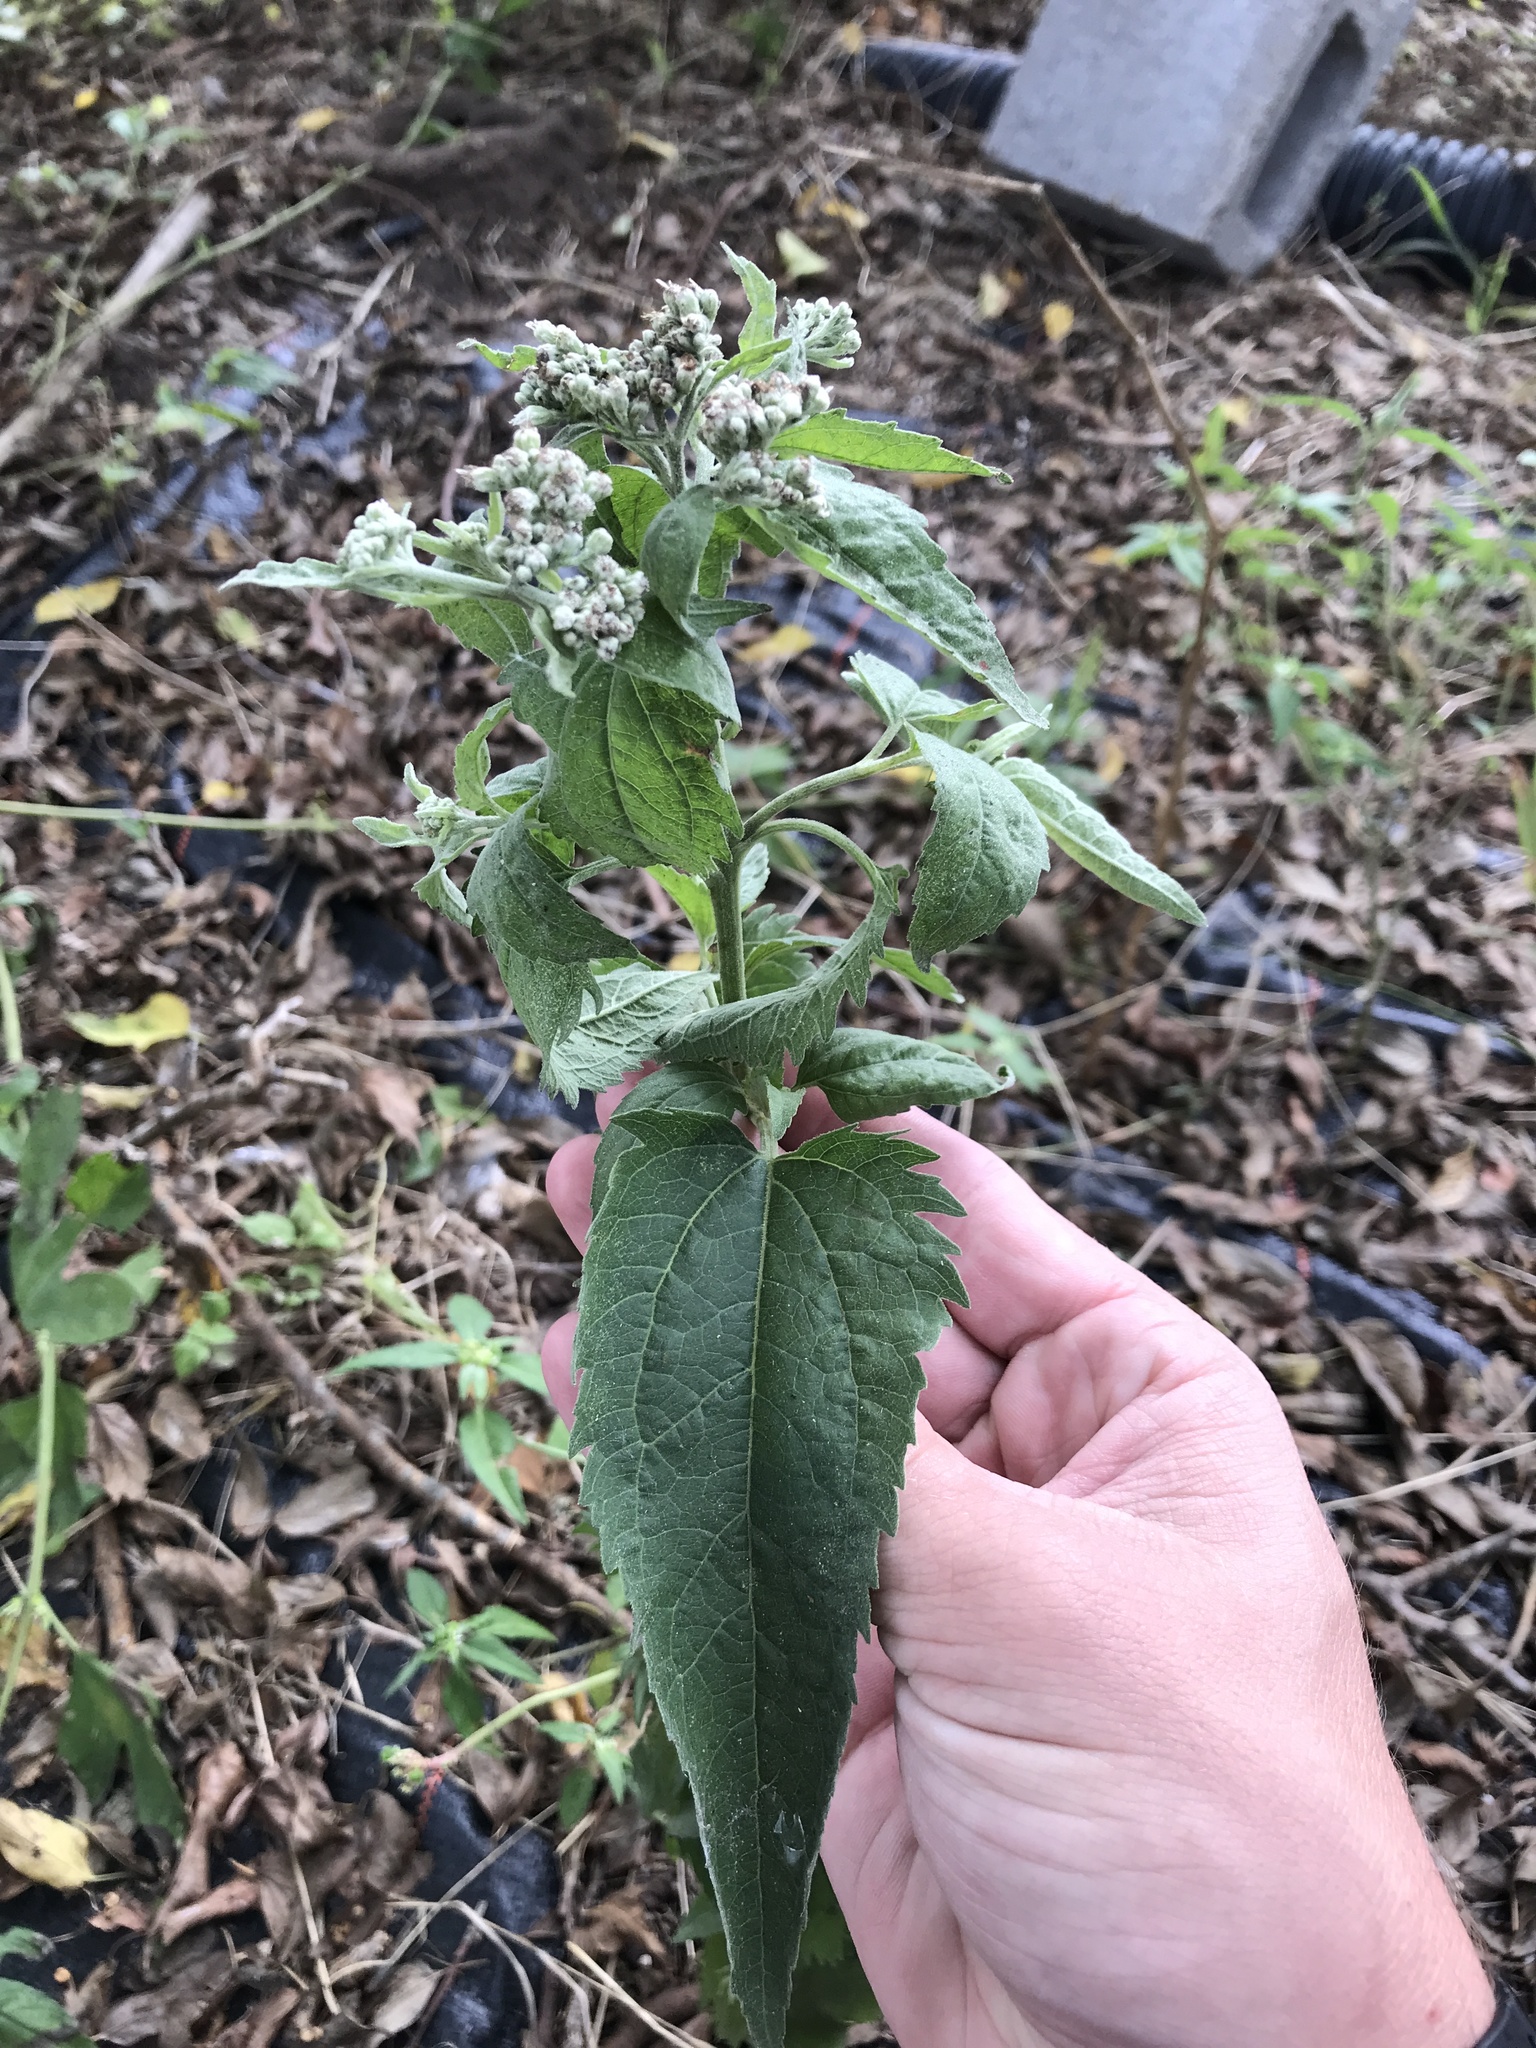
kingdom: Plantae
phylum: Tracheophyta
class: Magnoliopsida
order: Asterales
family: Asteraceae
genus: Eupatorium
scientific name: Eupatorium serotinum
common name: Late boneset
